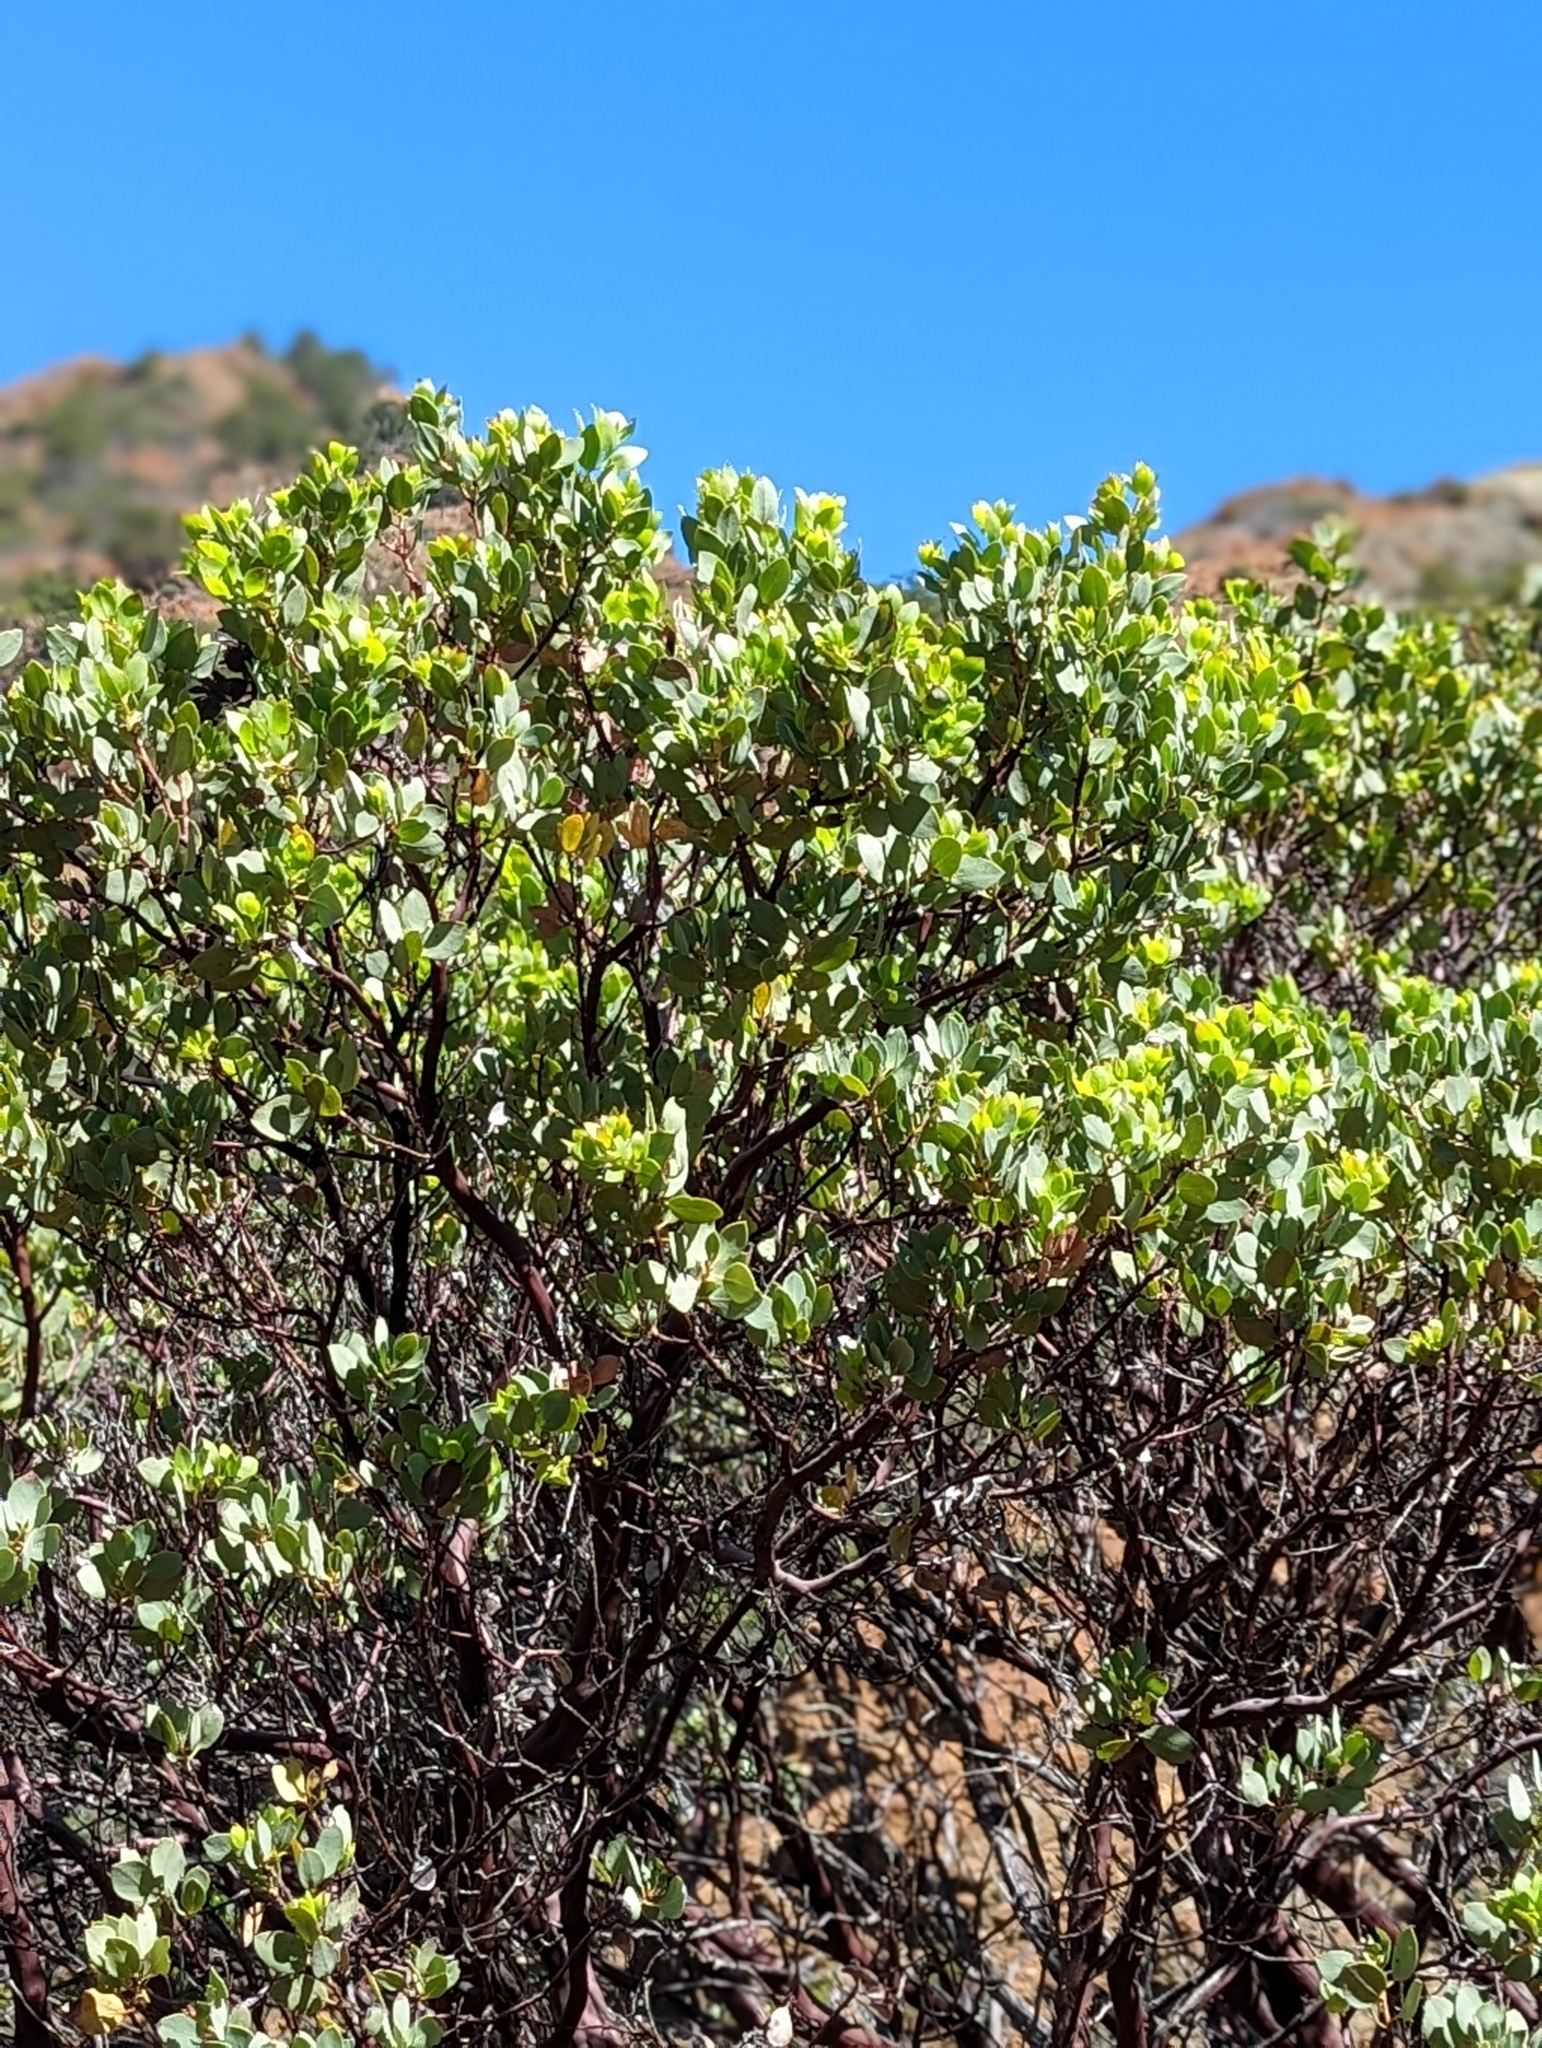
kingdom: Plantae
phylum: Tracheophyta
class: Magnoliopsida
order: Ericales
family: Ericaceae
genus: Arctostaphylos
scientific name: Arctostaphylos viscida
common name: White-leaf manzanita
